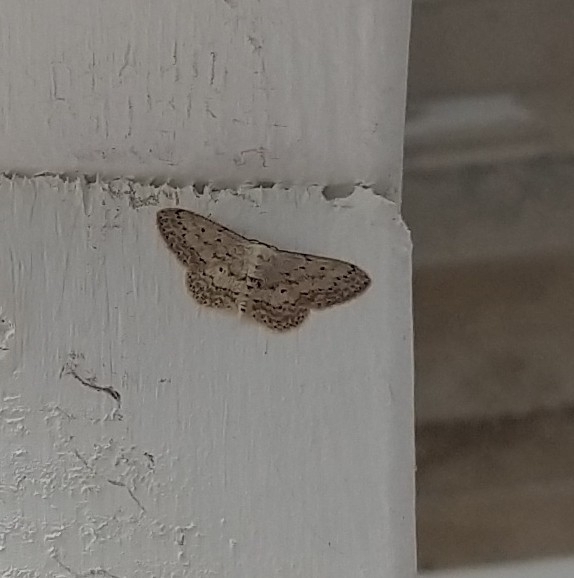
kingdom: Animalia
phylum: Arthropoda
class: Insecta
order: Lepidoptera
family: Geometridae
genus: Idaea
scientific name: Idaea seriata
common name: Small dusty wave
